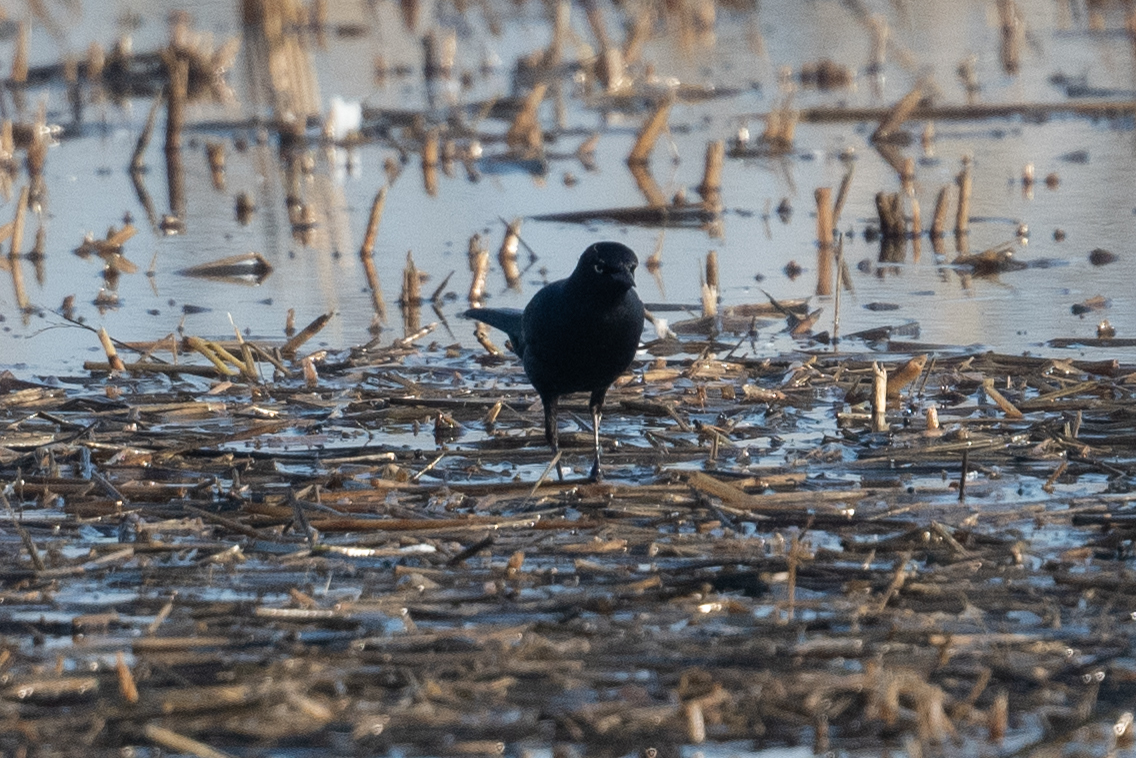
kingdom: Animalia
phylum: Chordata
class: Aves
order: Passeriformes
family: Icteridae
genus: Euphagus
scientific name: Euphagus cyanocephalus
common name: Brewer's blackbird
